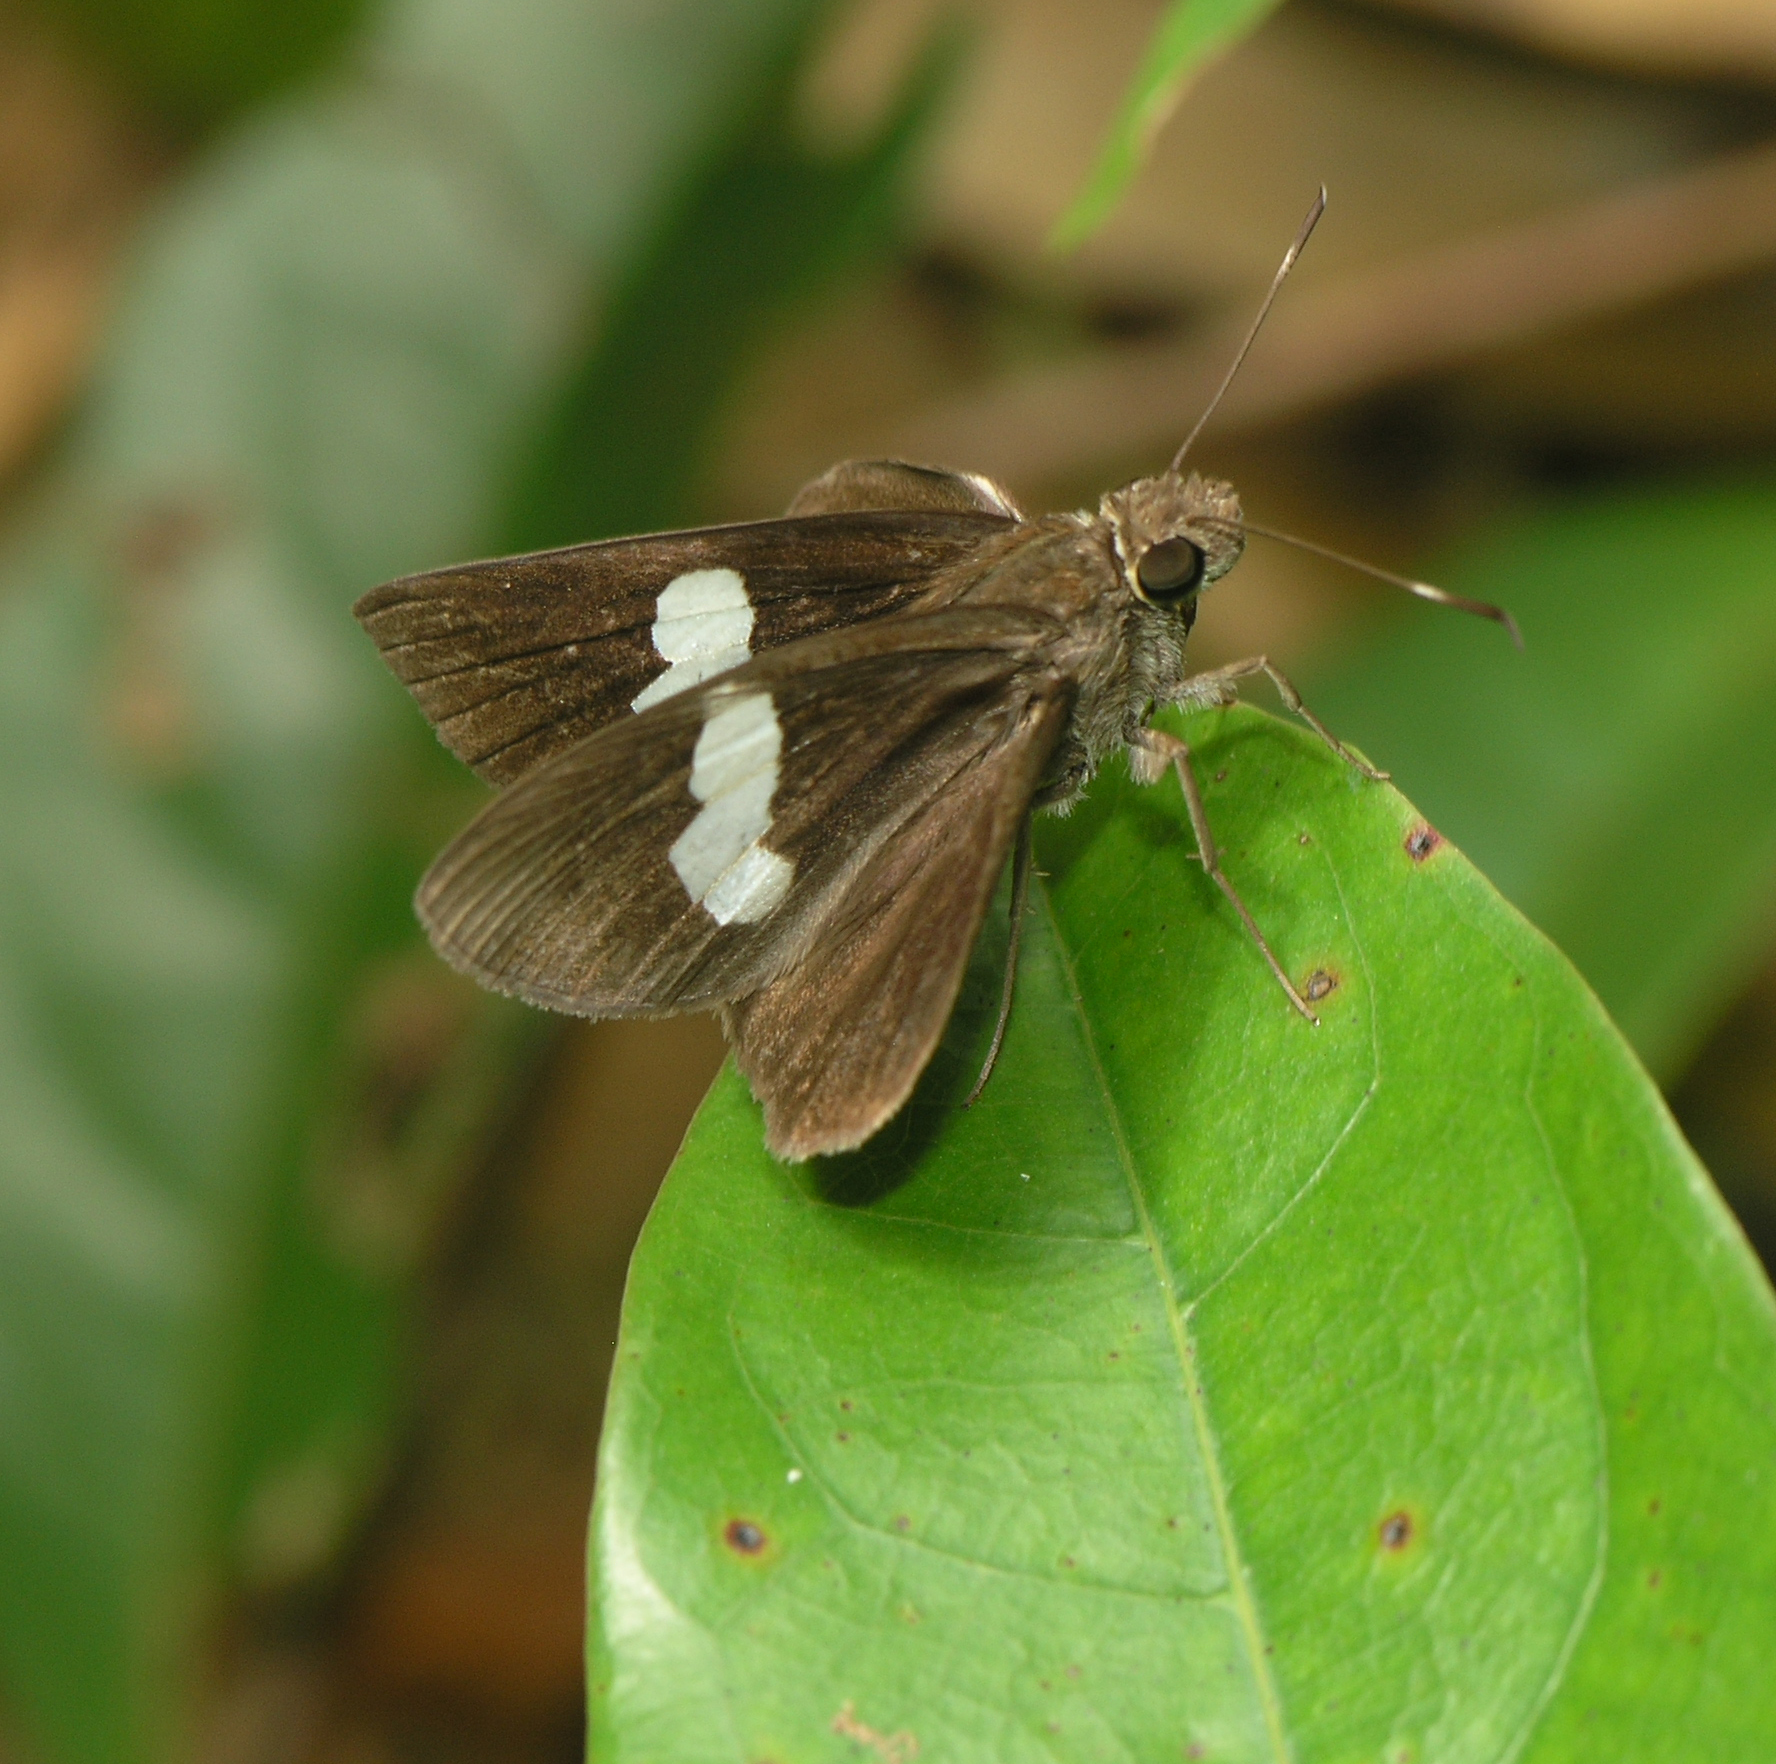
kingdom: Animalia
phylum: Arthropoda
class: Insecta
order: Lepidoptera
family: Hesperiidae
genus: Notocrypta
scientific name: Notocrypta paralysos
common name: Common banded demon
